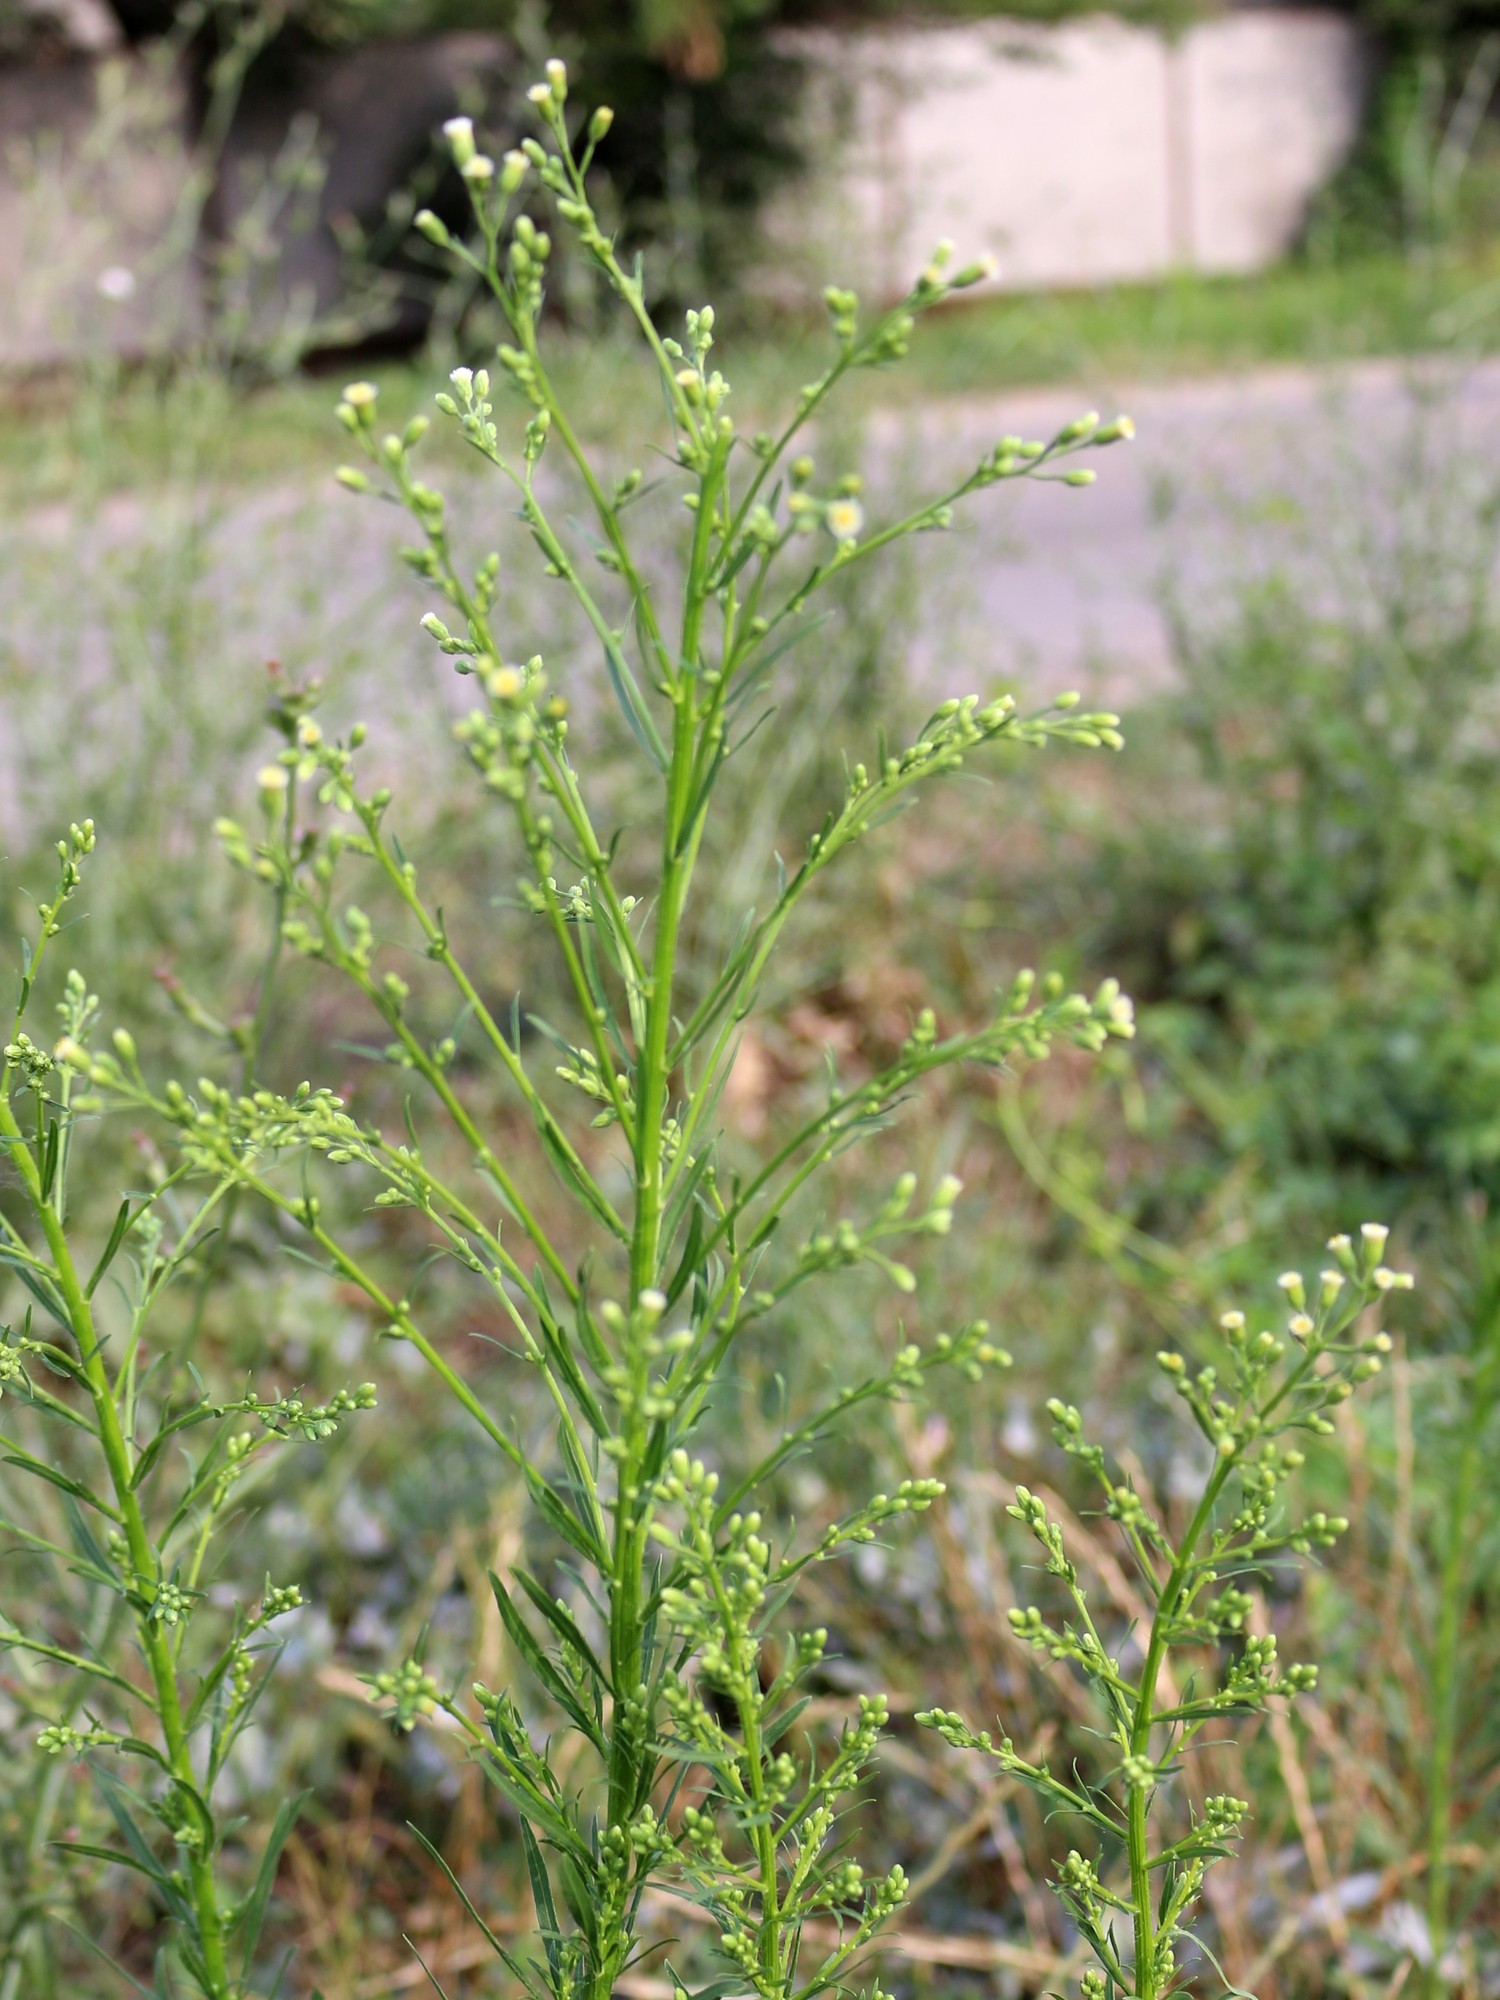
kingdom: Plantae
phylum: Tracheophyta
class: Magnoliopsida
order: Asterales
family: Asteraceae
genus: Erigeron
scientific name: Erigeron canadensis
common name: Canadian fleabane
